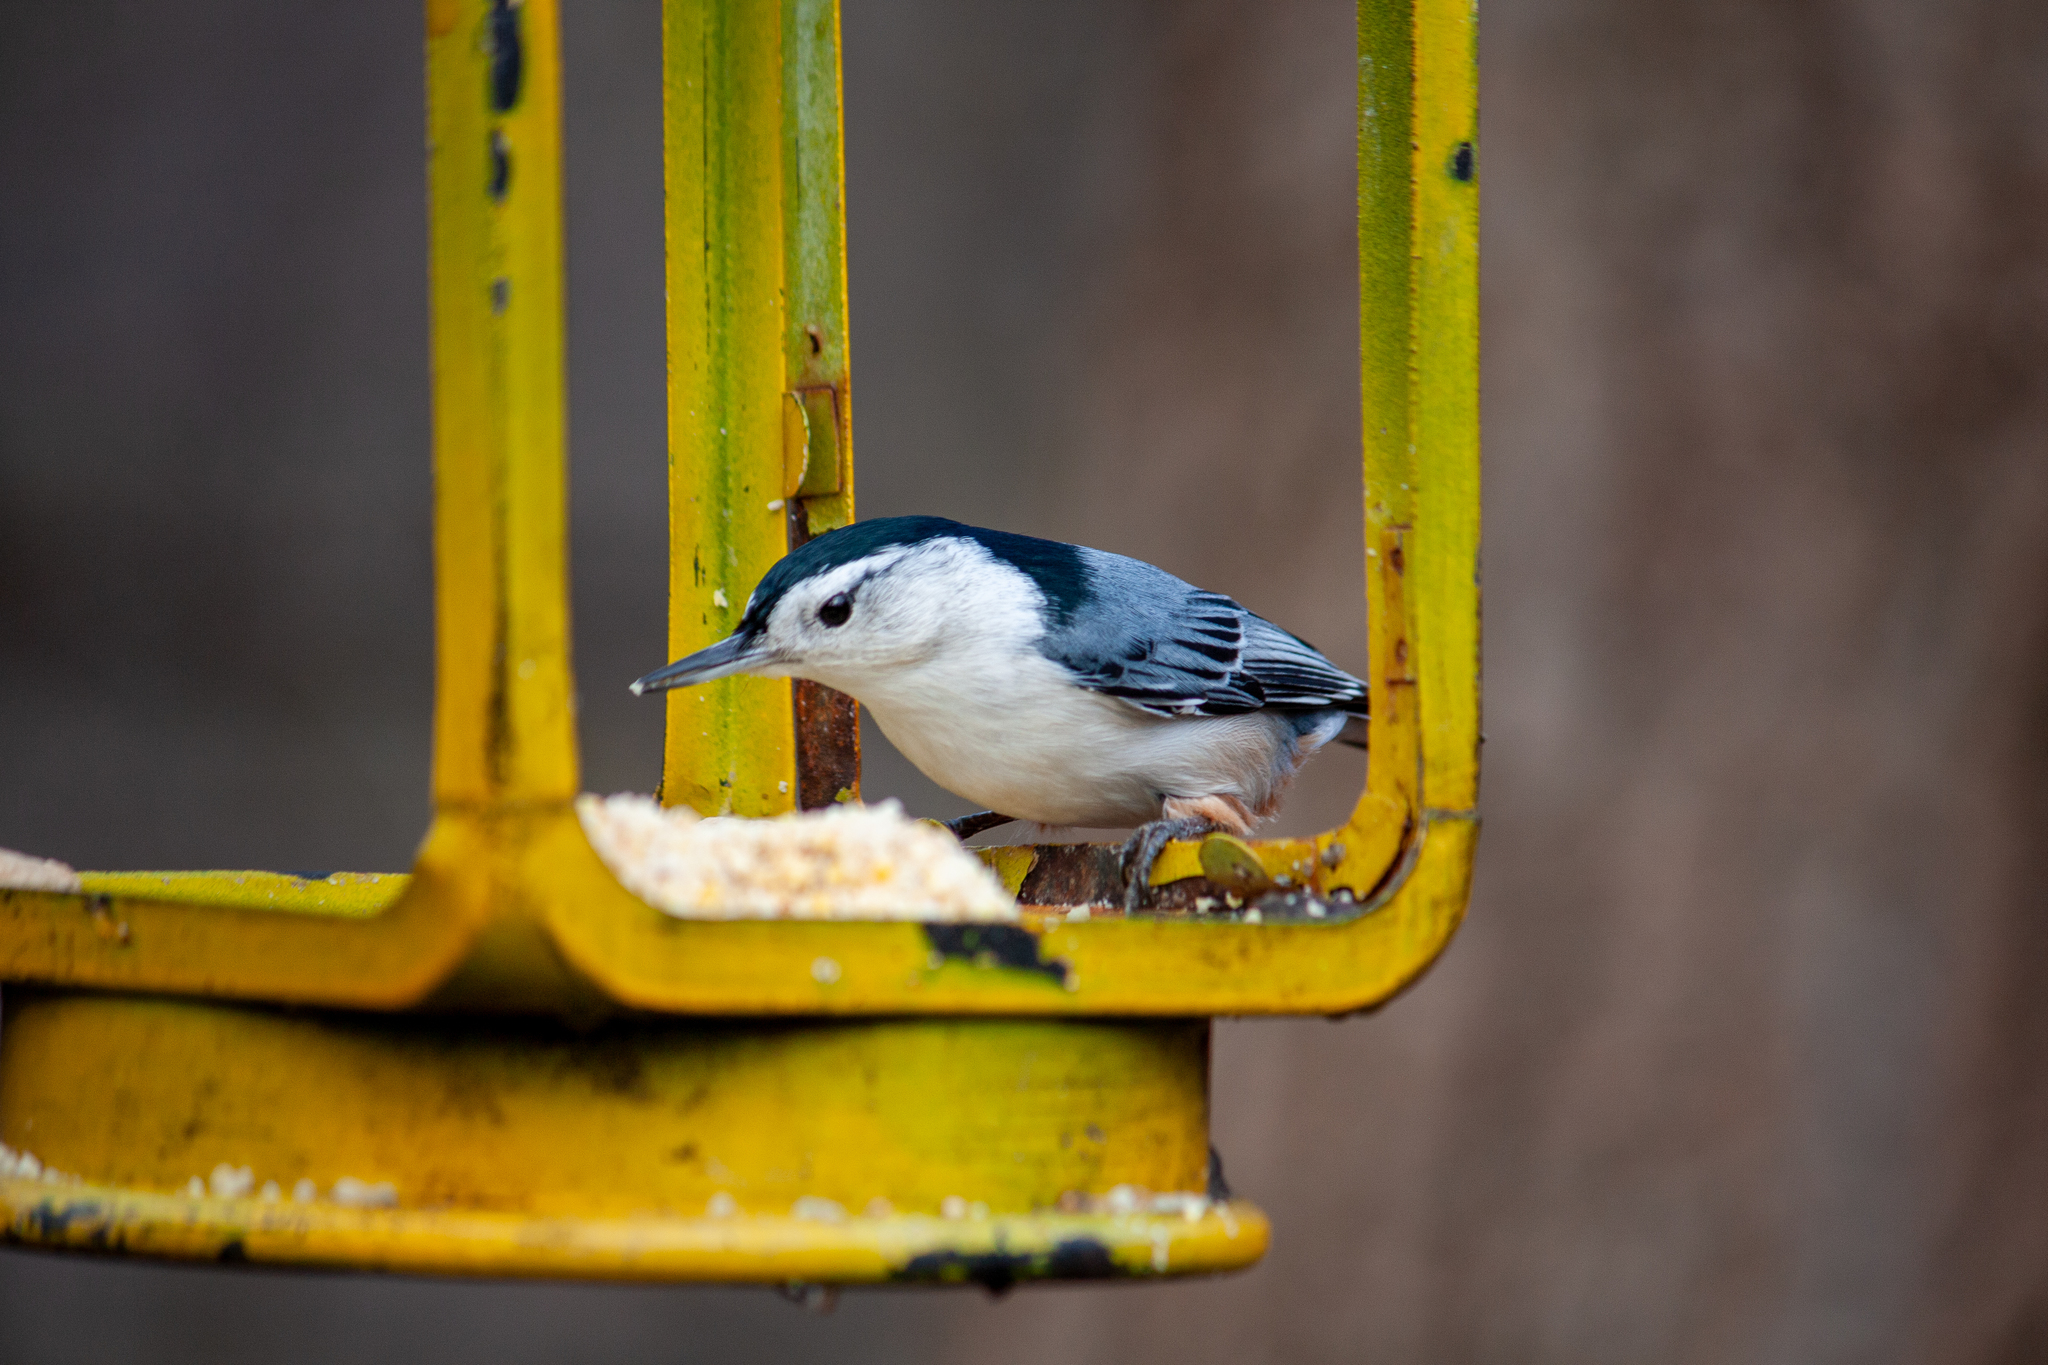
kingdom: Animalia
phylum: Chordata
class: Aves
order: Passeriformes
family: Sittidae
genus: Sitta
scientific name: Sitta carolinensis
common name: White-breasted nuthatch
